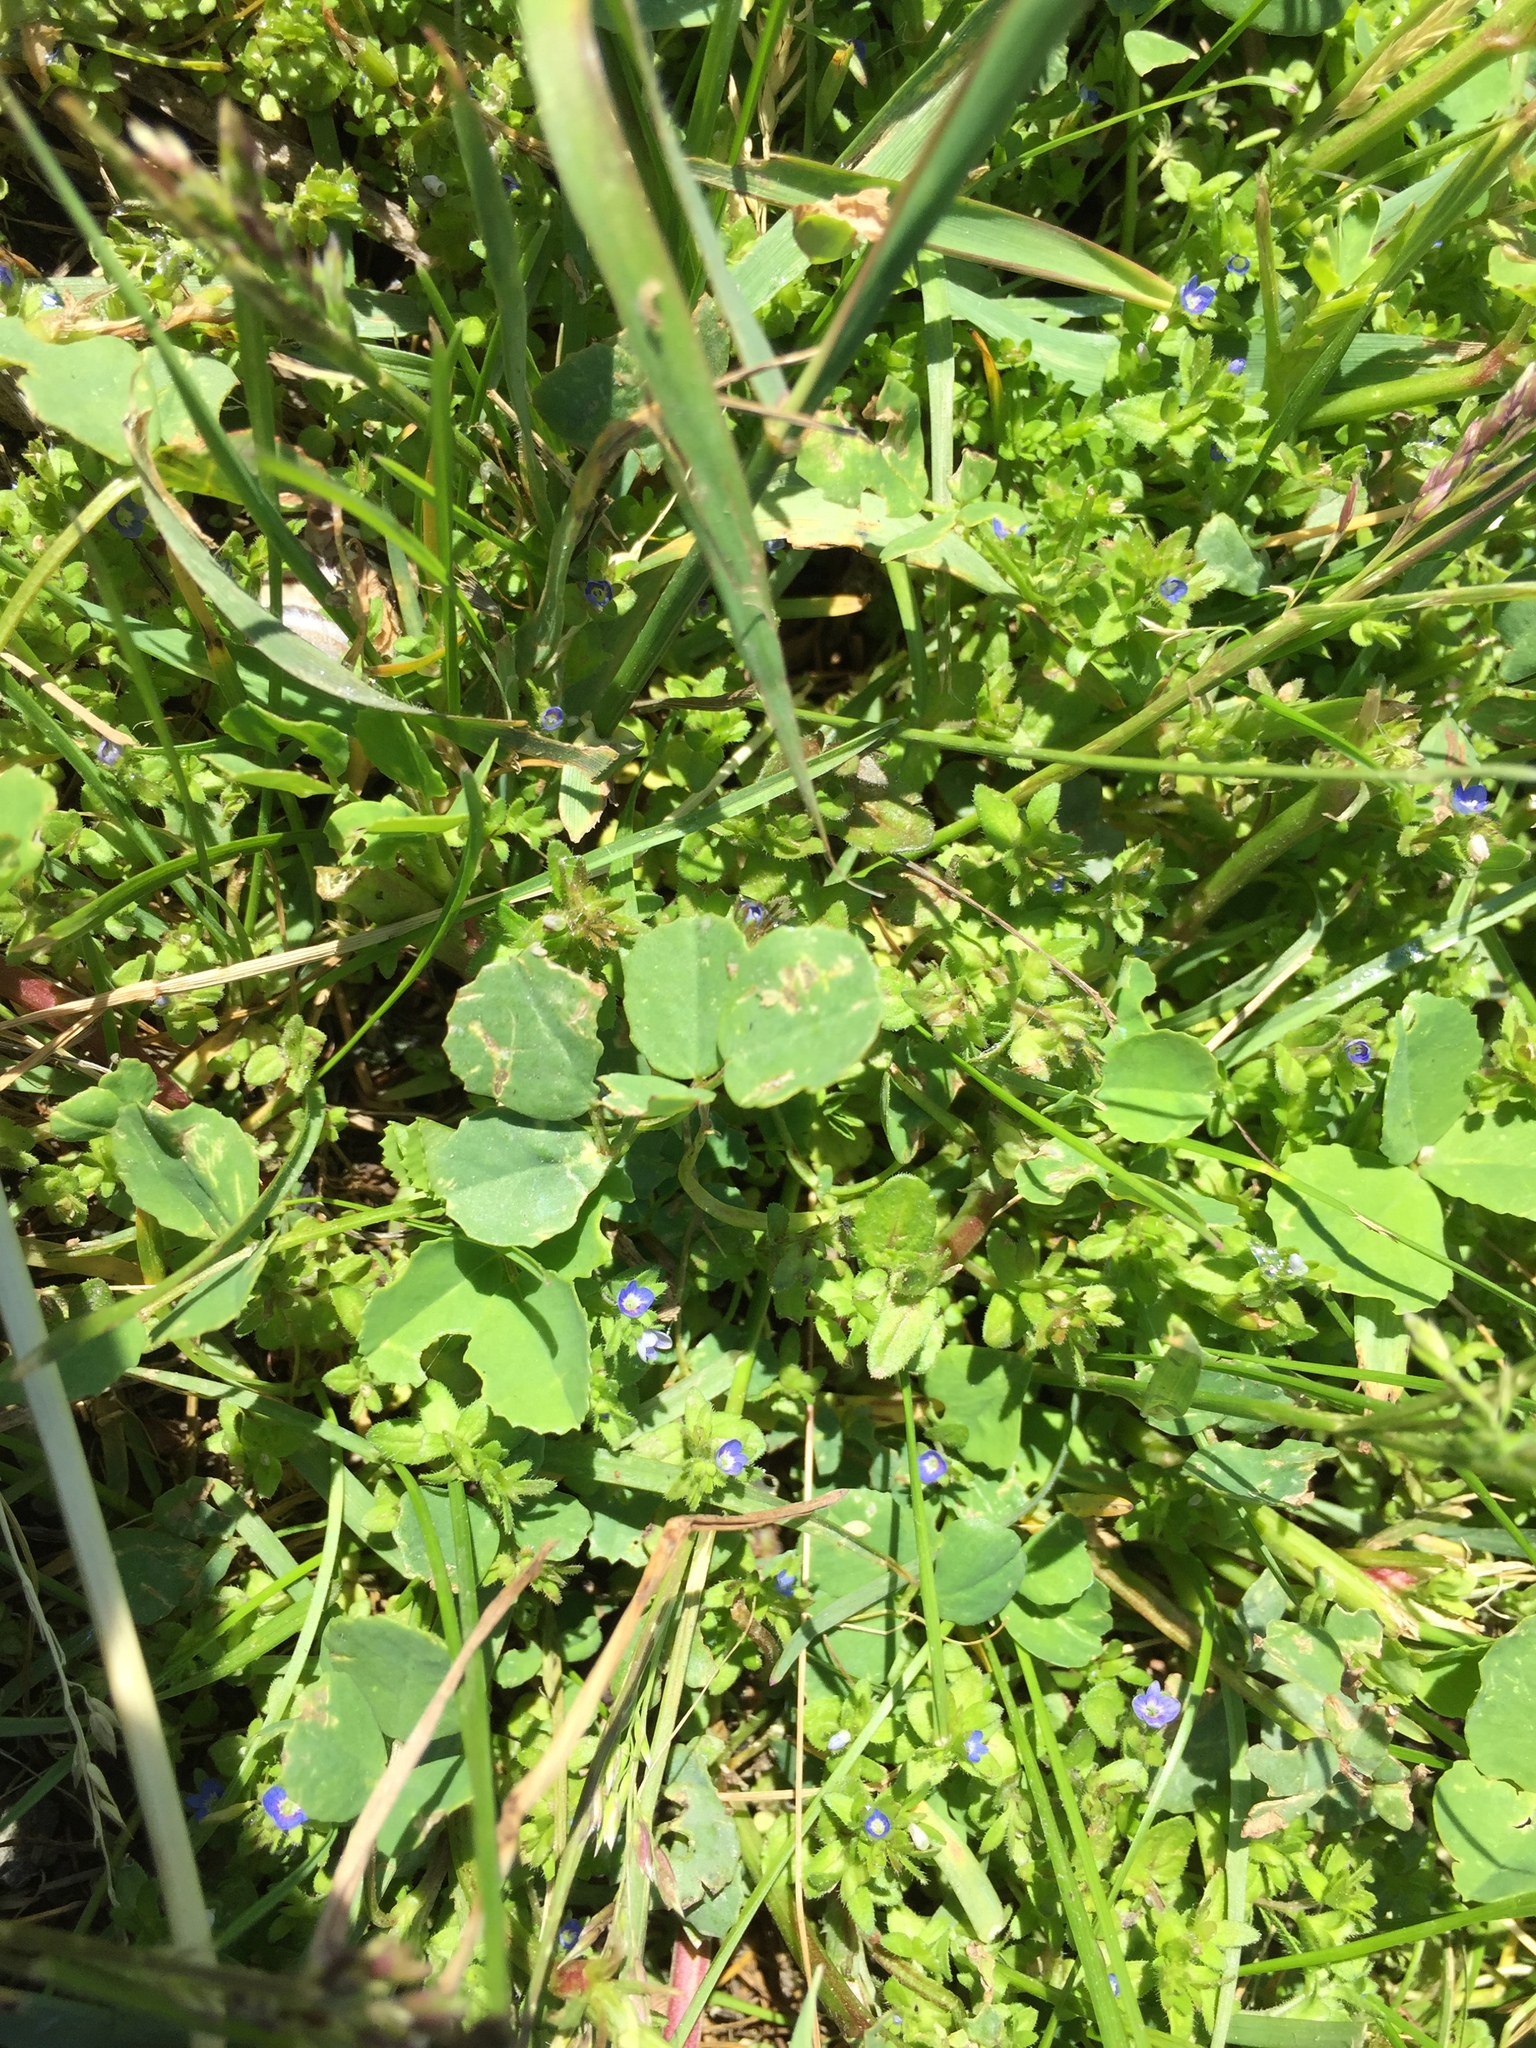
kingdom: Plantae
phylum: Tracheophyta
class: Magnoliopsida
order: Lamiales
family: Plantaginaceae
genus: Veronica
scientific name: Veronica arvensis
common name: Corn speedwell
